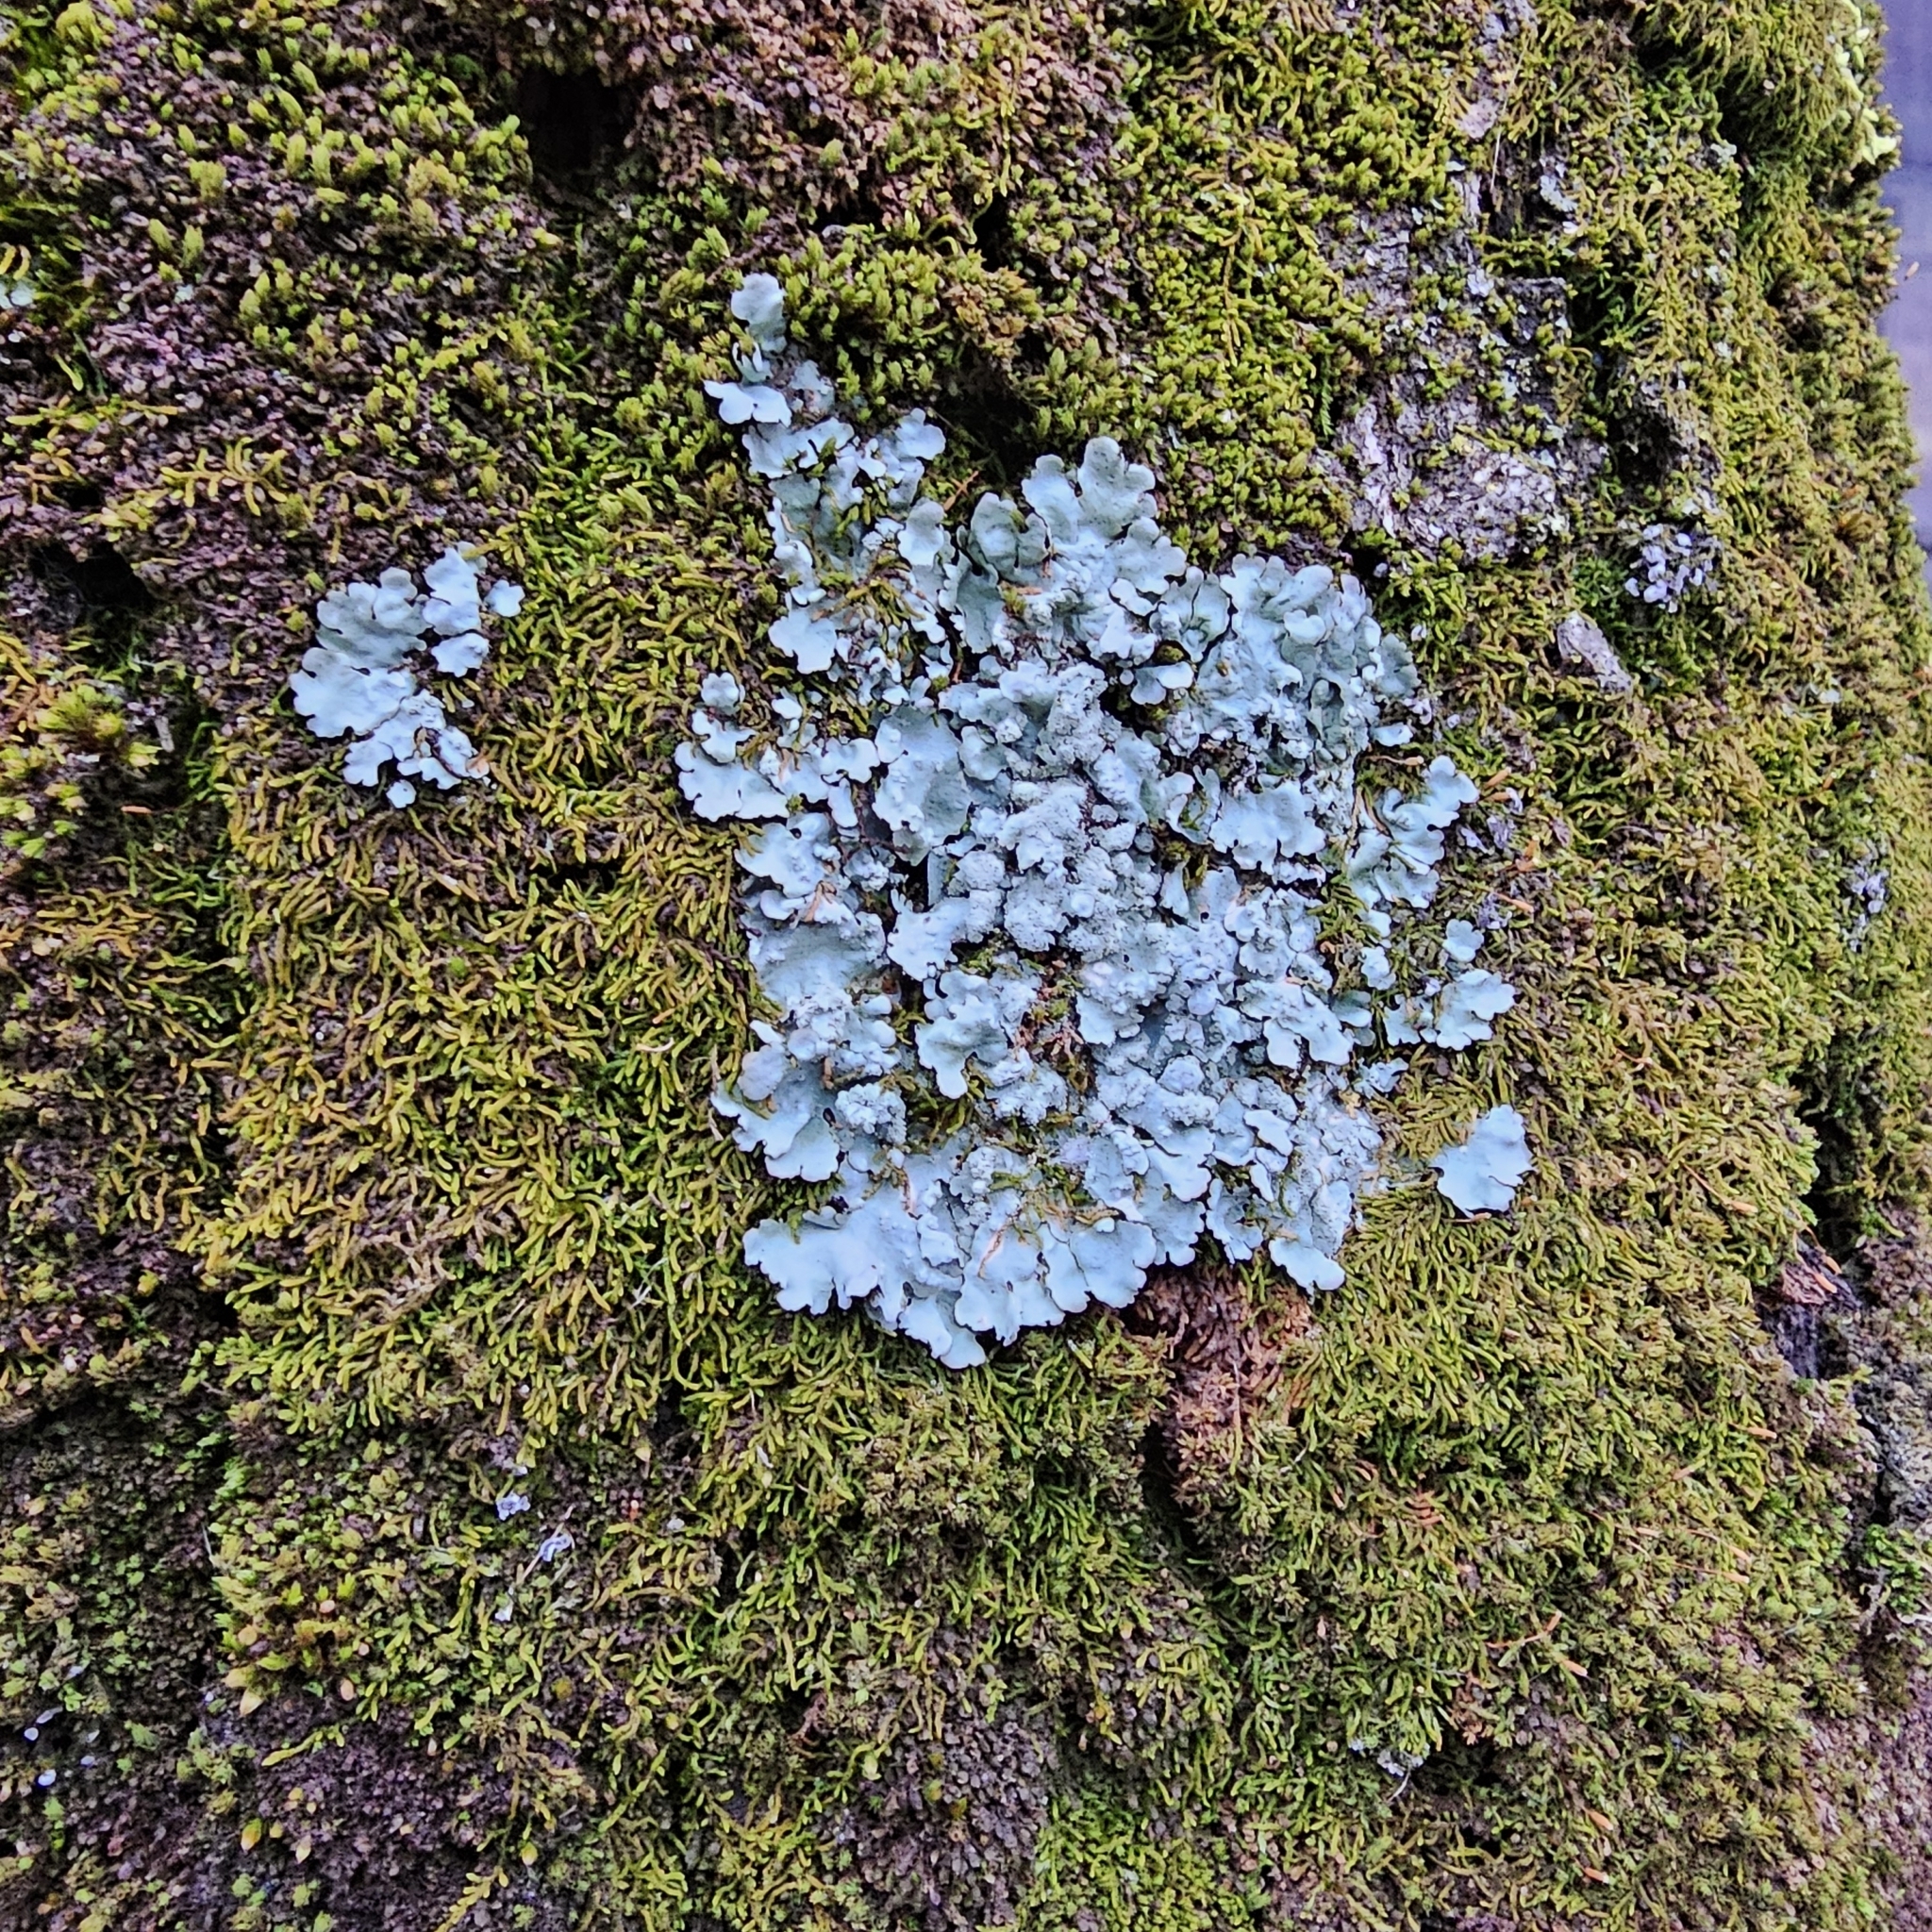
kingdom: Fungi
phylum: Ascomycota
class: Lecanoromycetes
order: Lecanorales
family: Parmeliaceae
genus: Flavoparmelia
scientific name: Flavoparmelia caperata
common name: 40-mile per hour lichen
